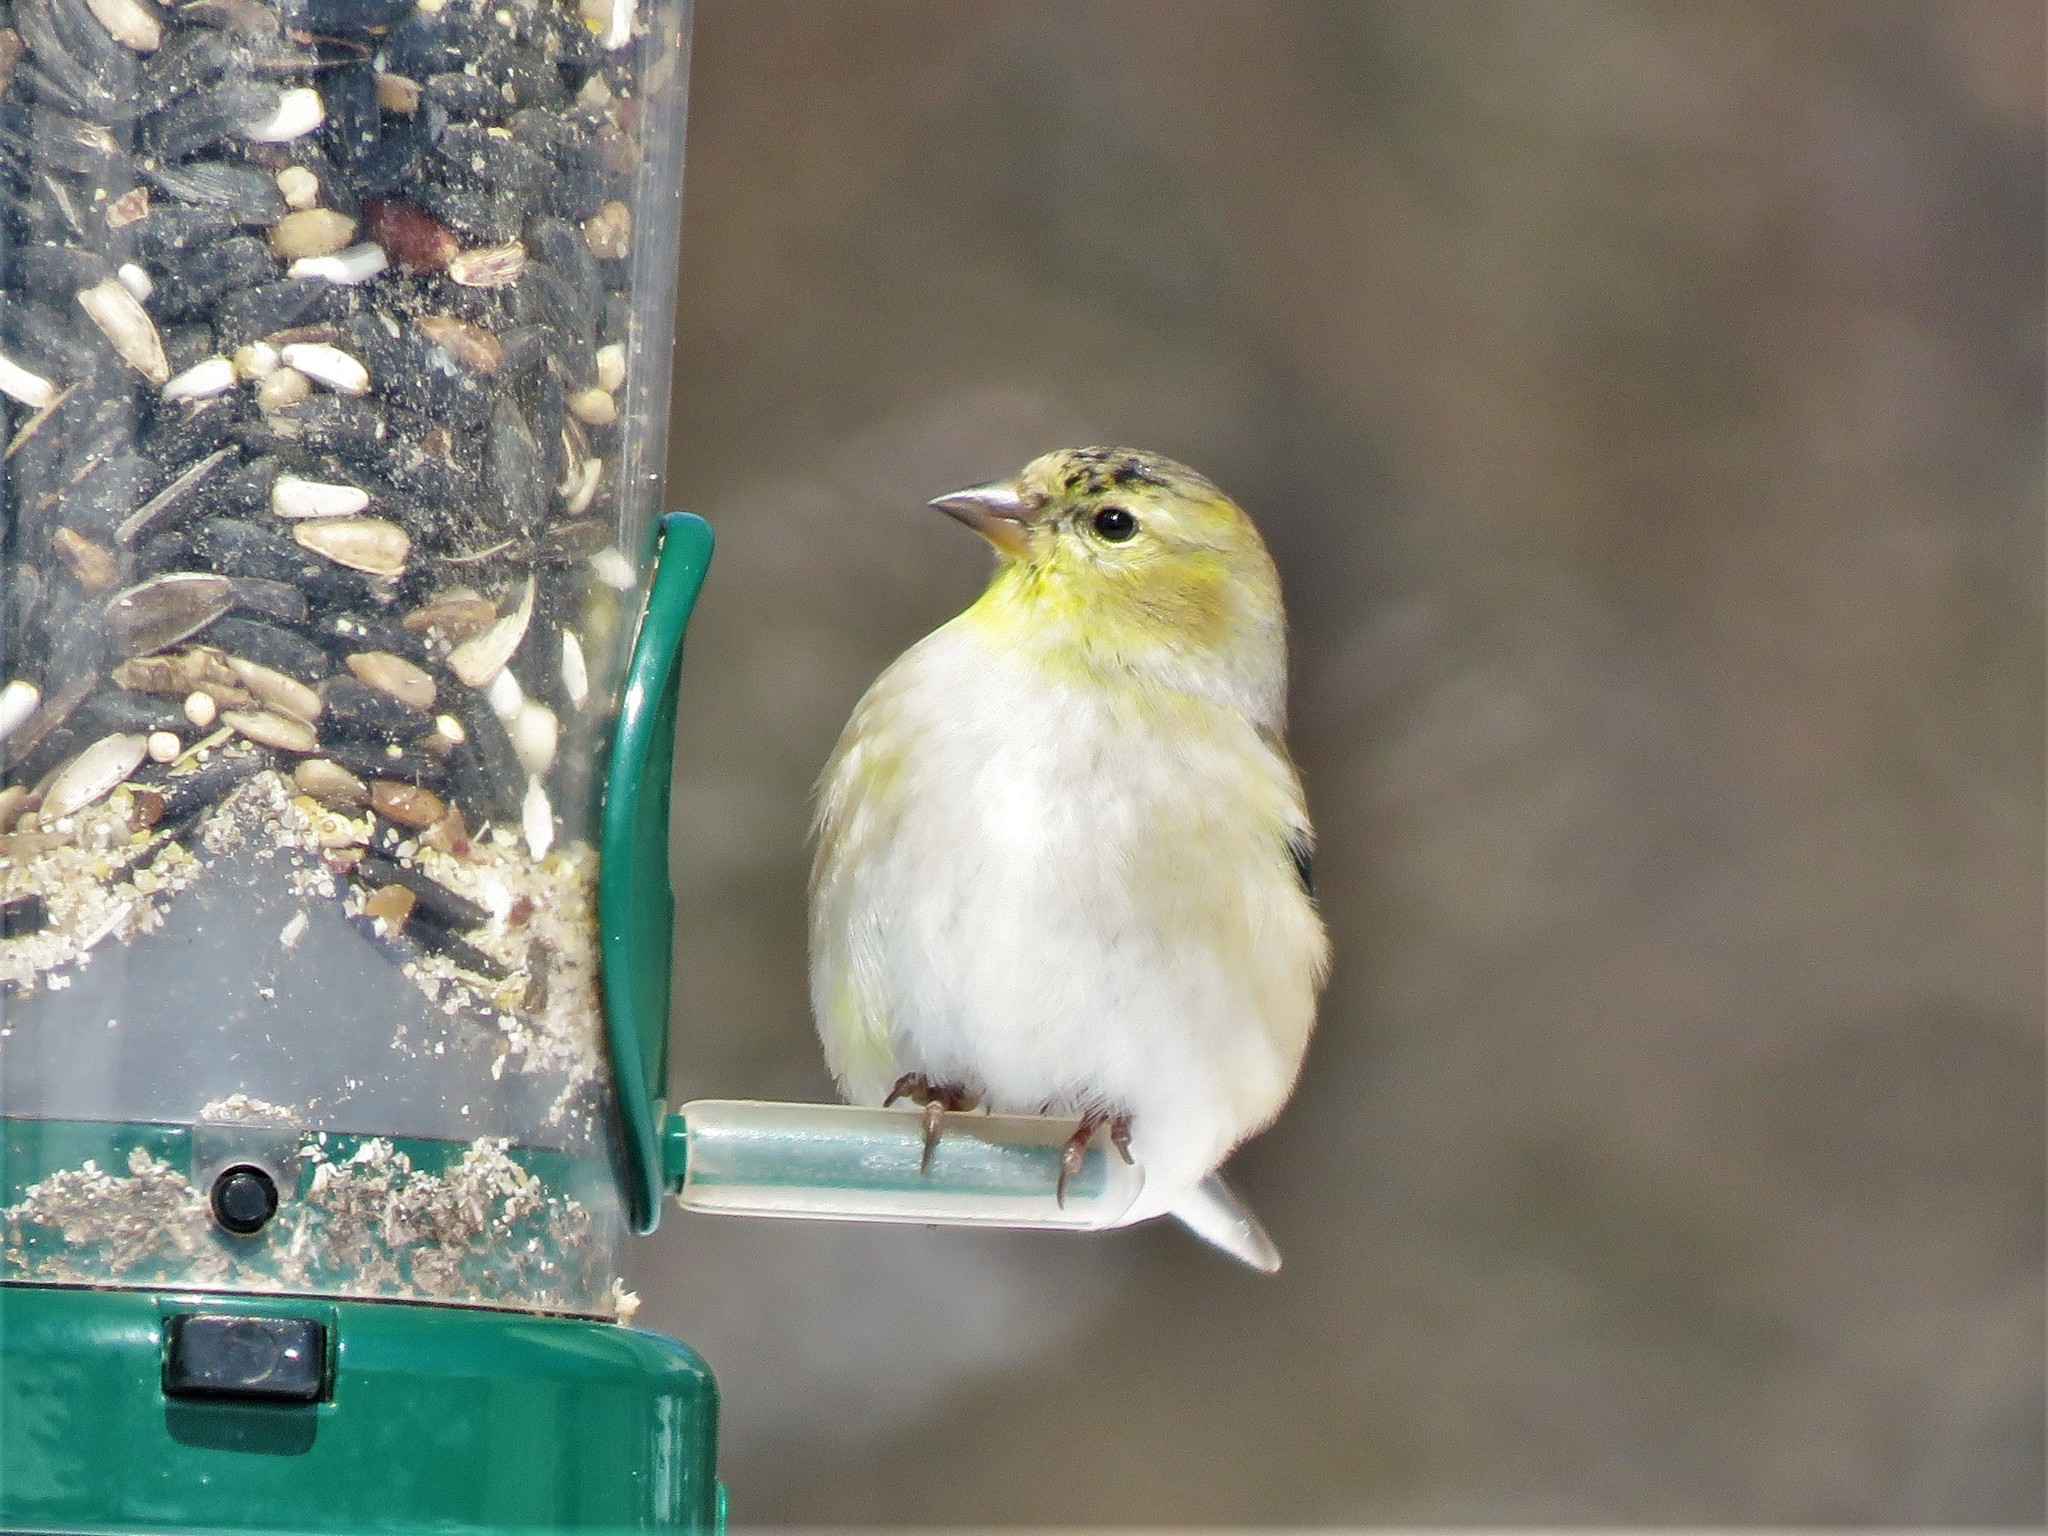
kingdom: Animalia
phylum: Chordata
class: Aves
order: Passeriformes
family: Fringillidae
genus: Spinus
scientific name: Spinus tristis
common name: American goldfinch
